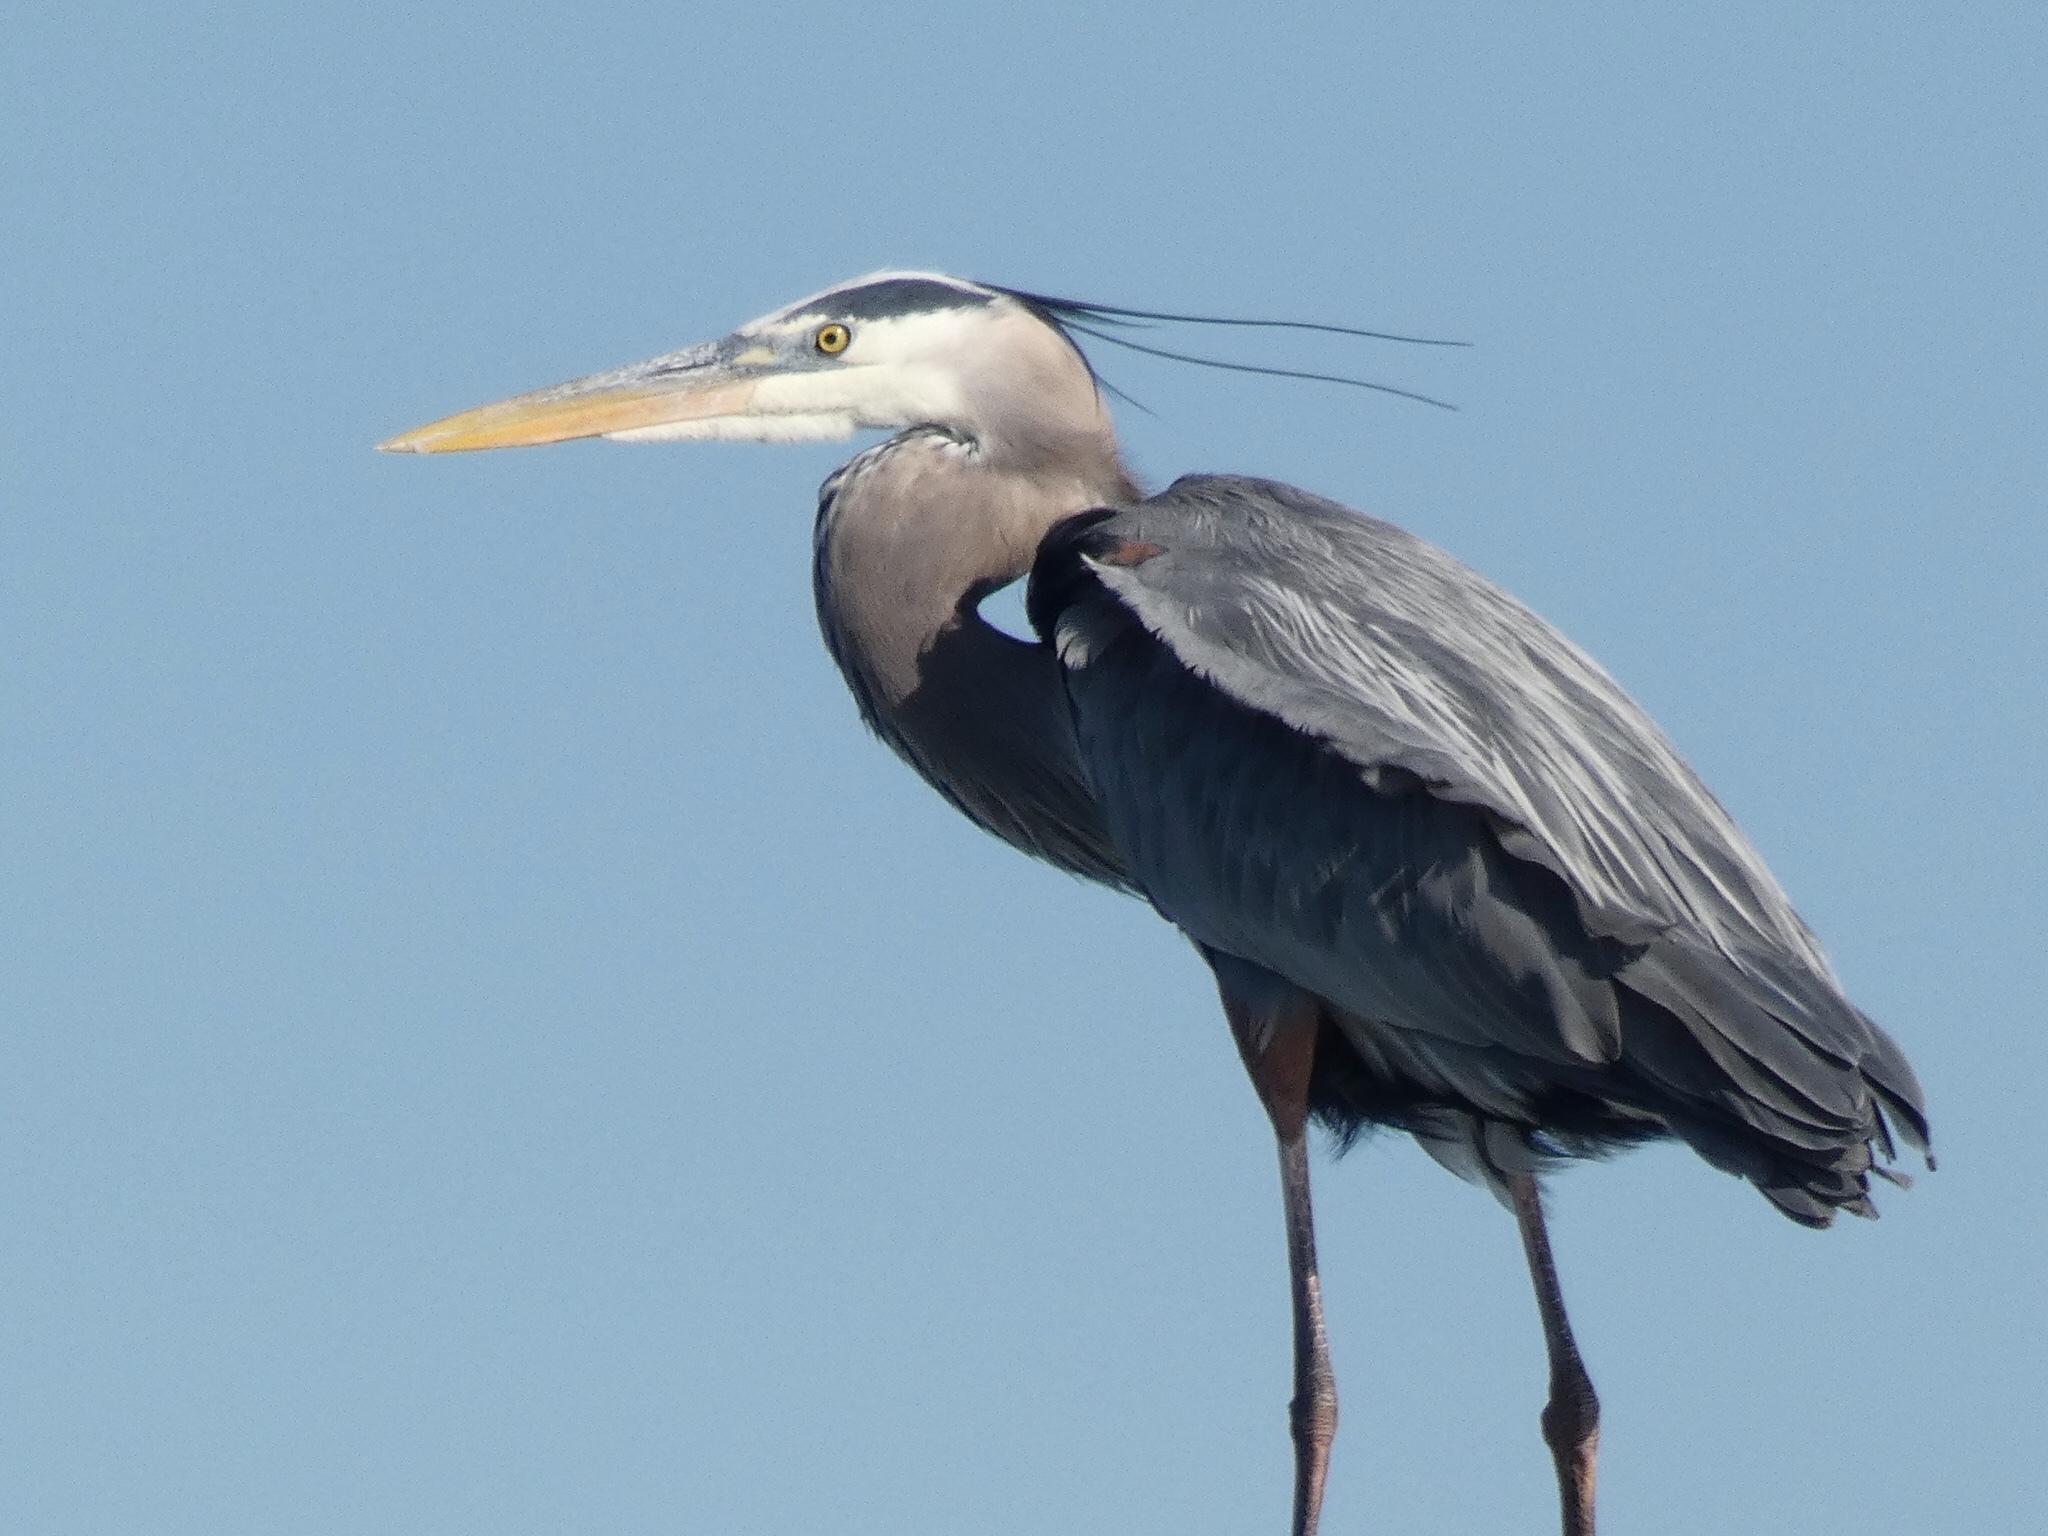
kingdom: Animalia
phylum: Chordata
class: Aves
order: Pelecaniformes
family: Ardeidae
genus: Ardea
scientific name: Ardea herodias
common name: Great blue heron
